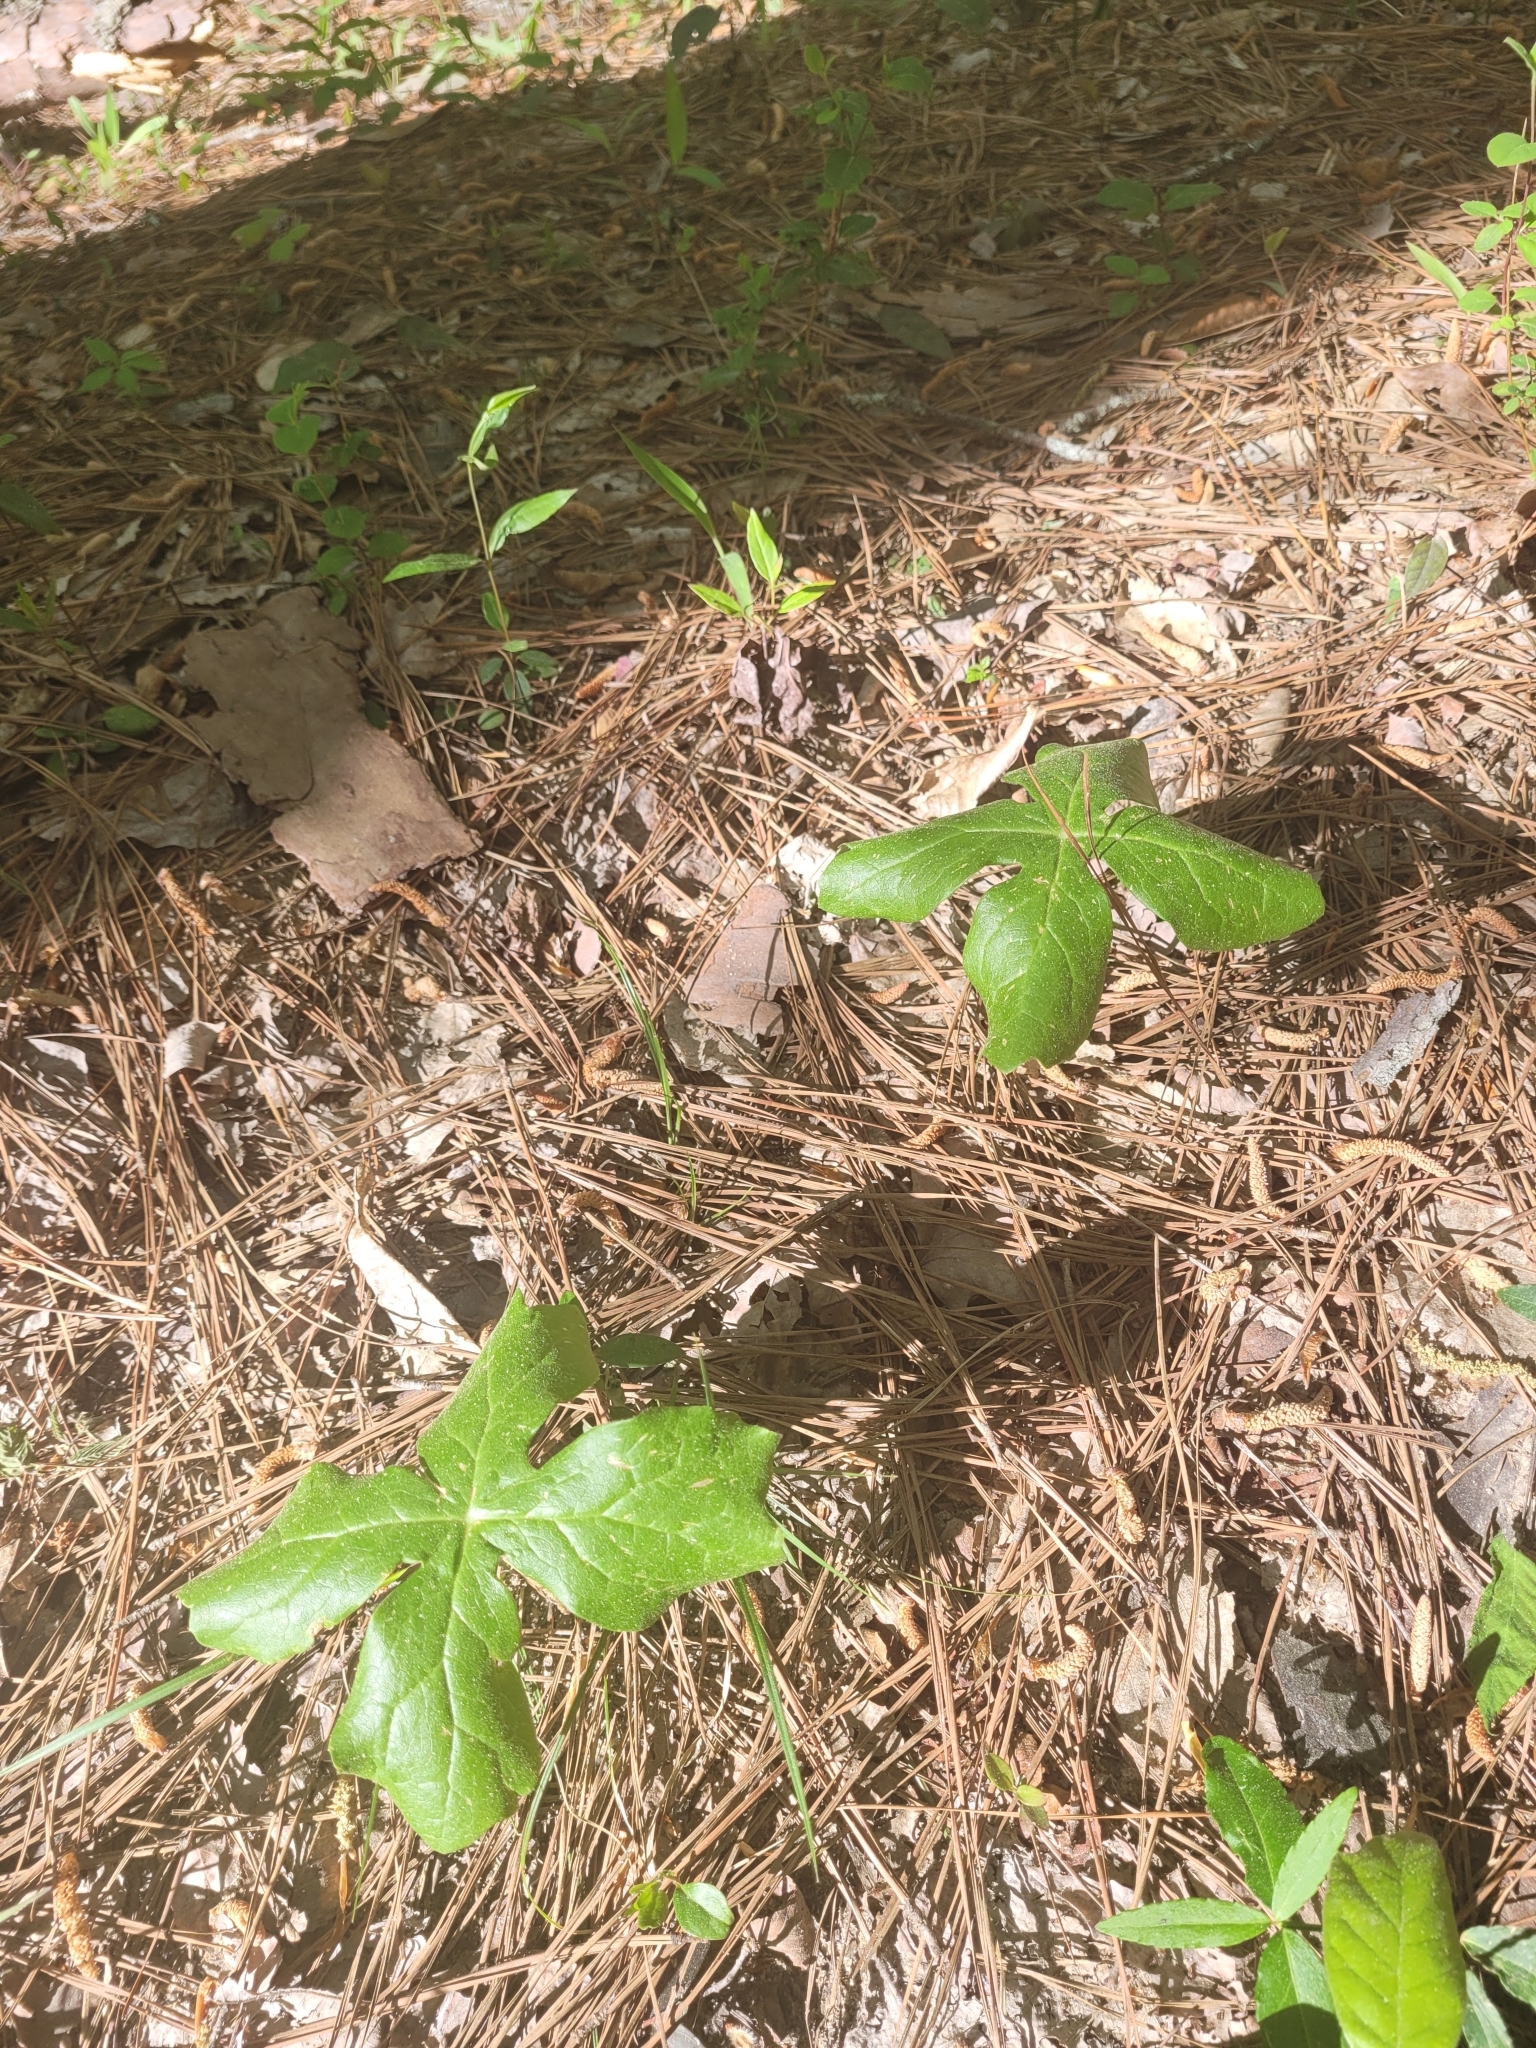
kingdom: Plantae
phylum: Tracheophyta
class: Magnoliopsida
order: Ranunculales
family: Berberidaceae
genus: Podophyllum
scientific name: Podophyllum peltatum
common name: Wild mandrake
